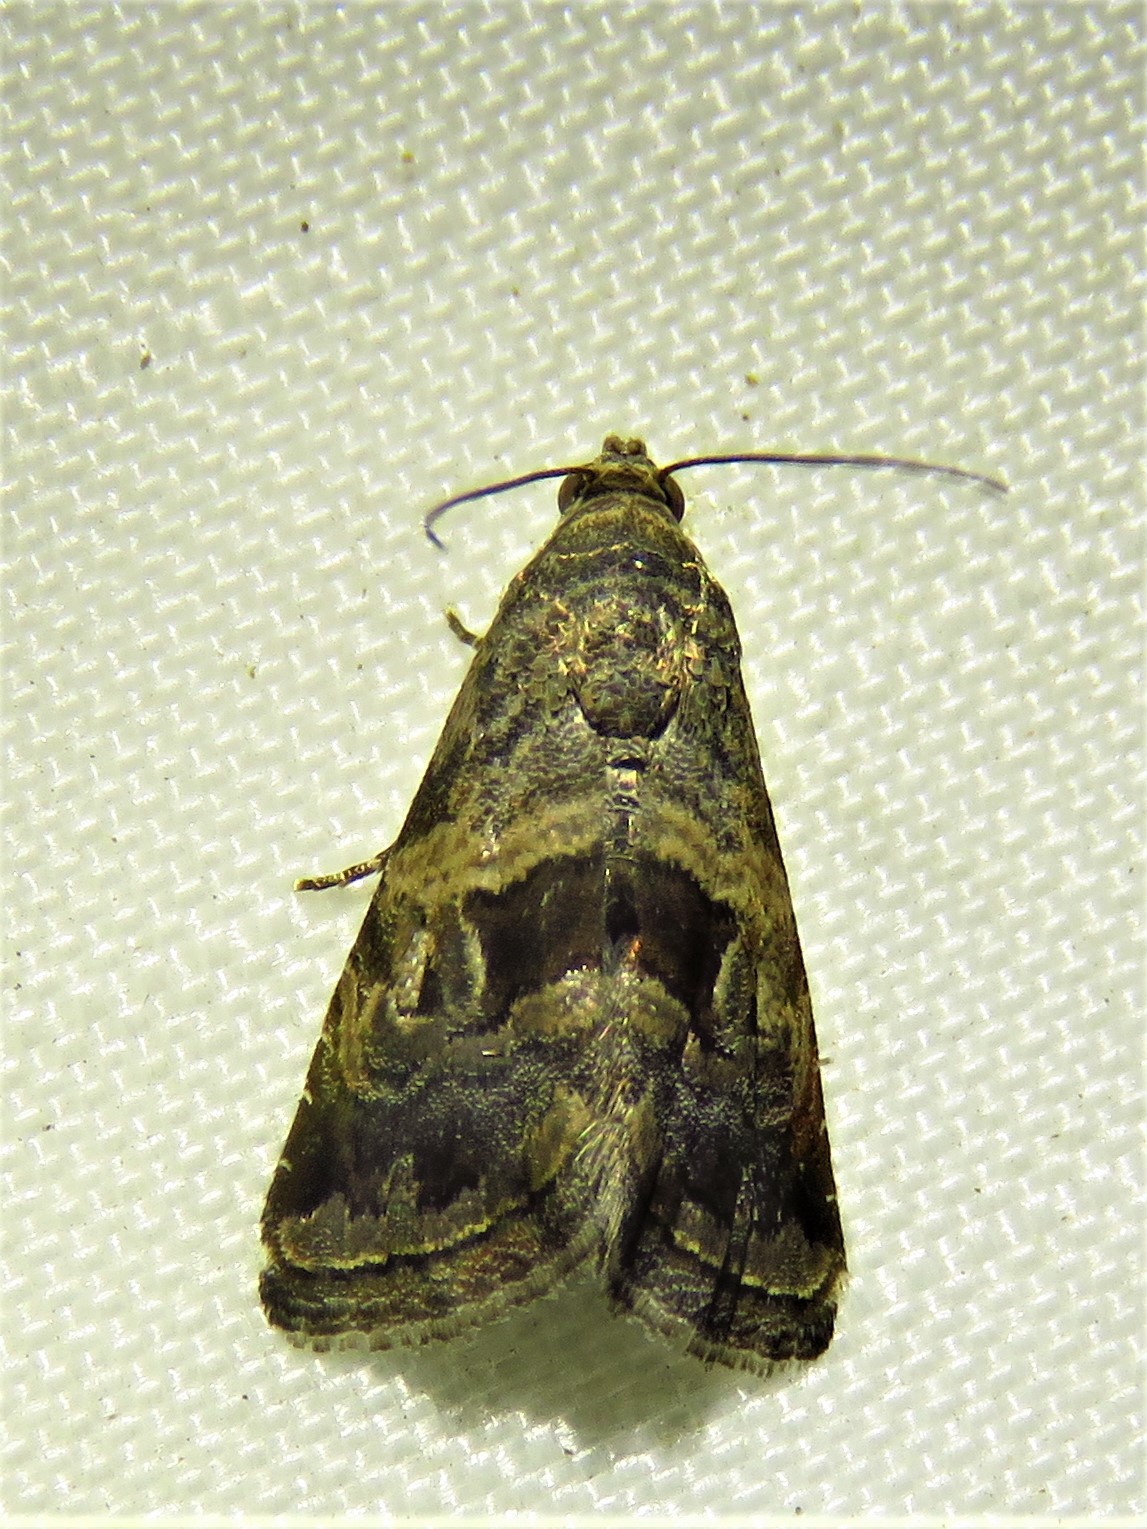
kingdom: Animalia
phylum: Arthropoda
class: Insecta
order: Lepidoptera
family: Noctuidae
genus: Tripudia
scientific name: Tripudia quadrifera
